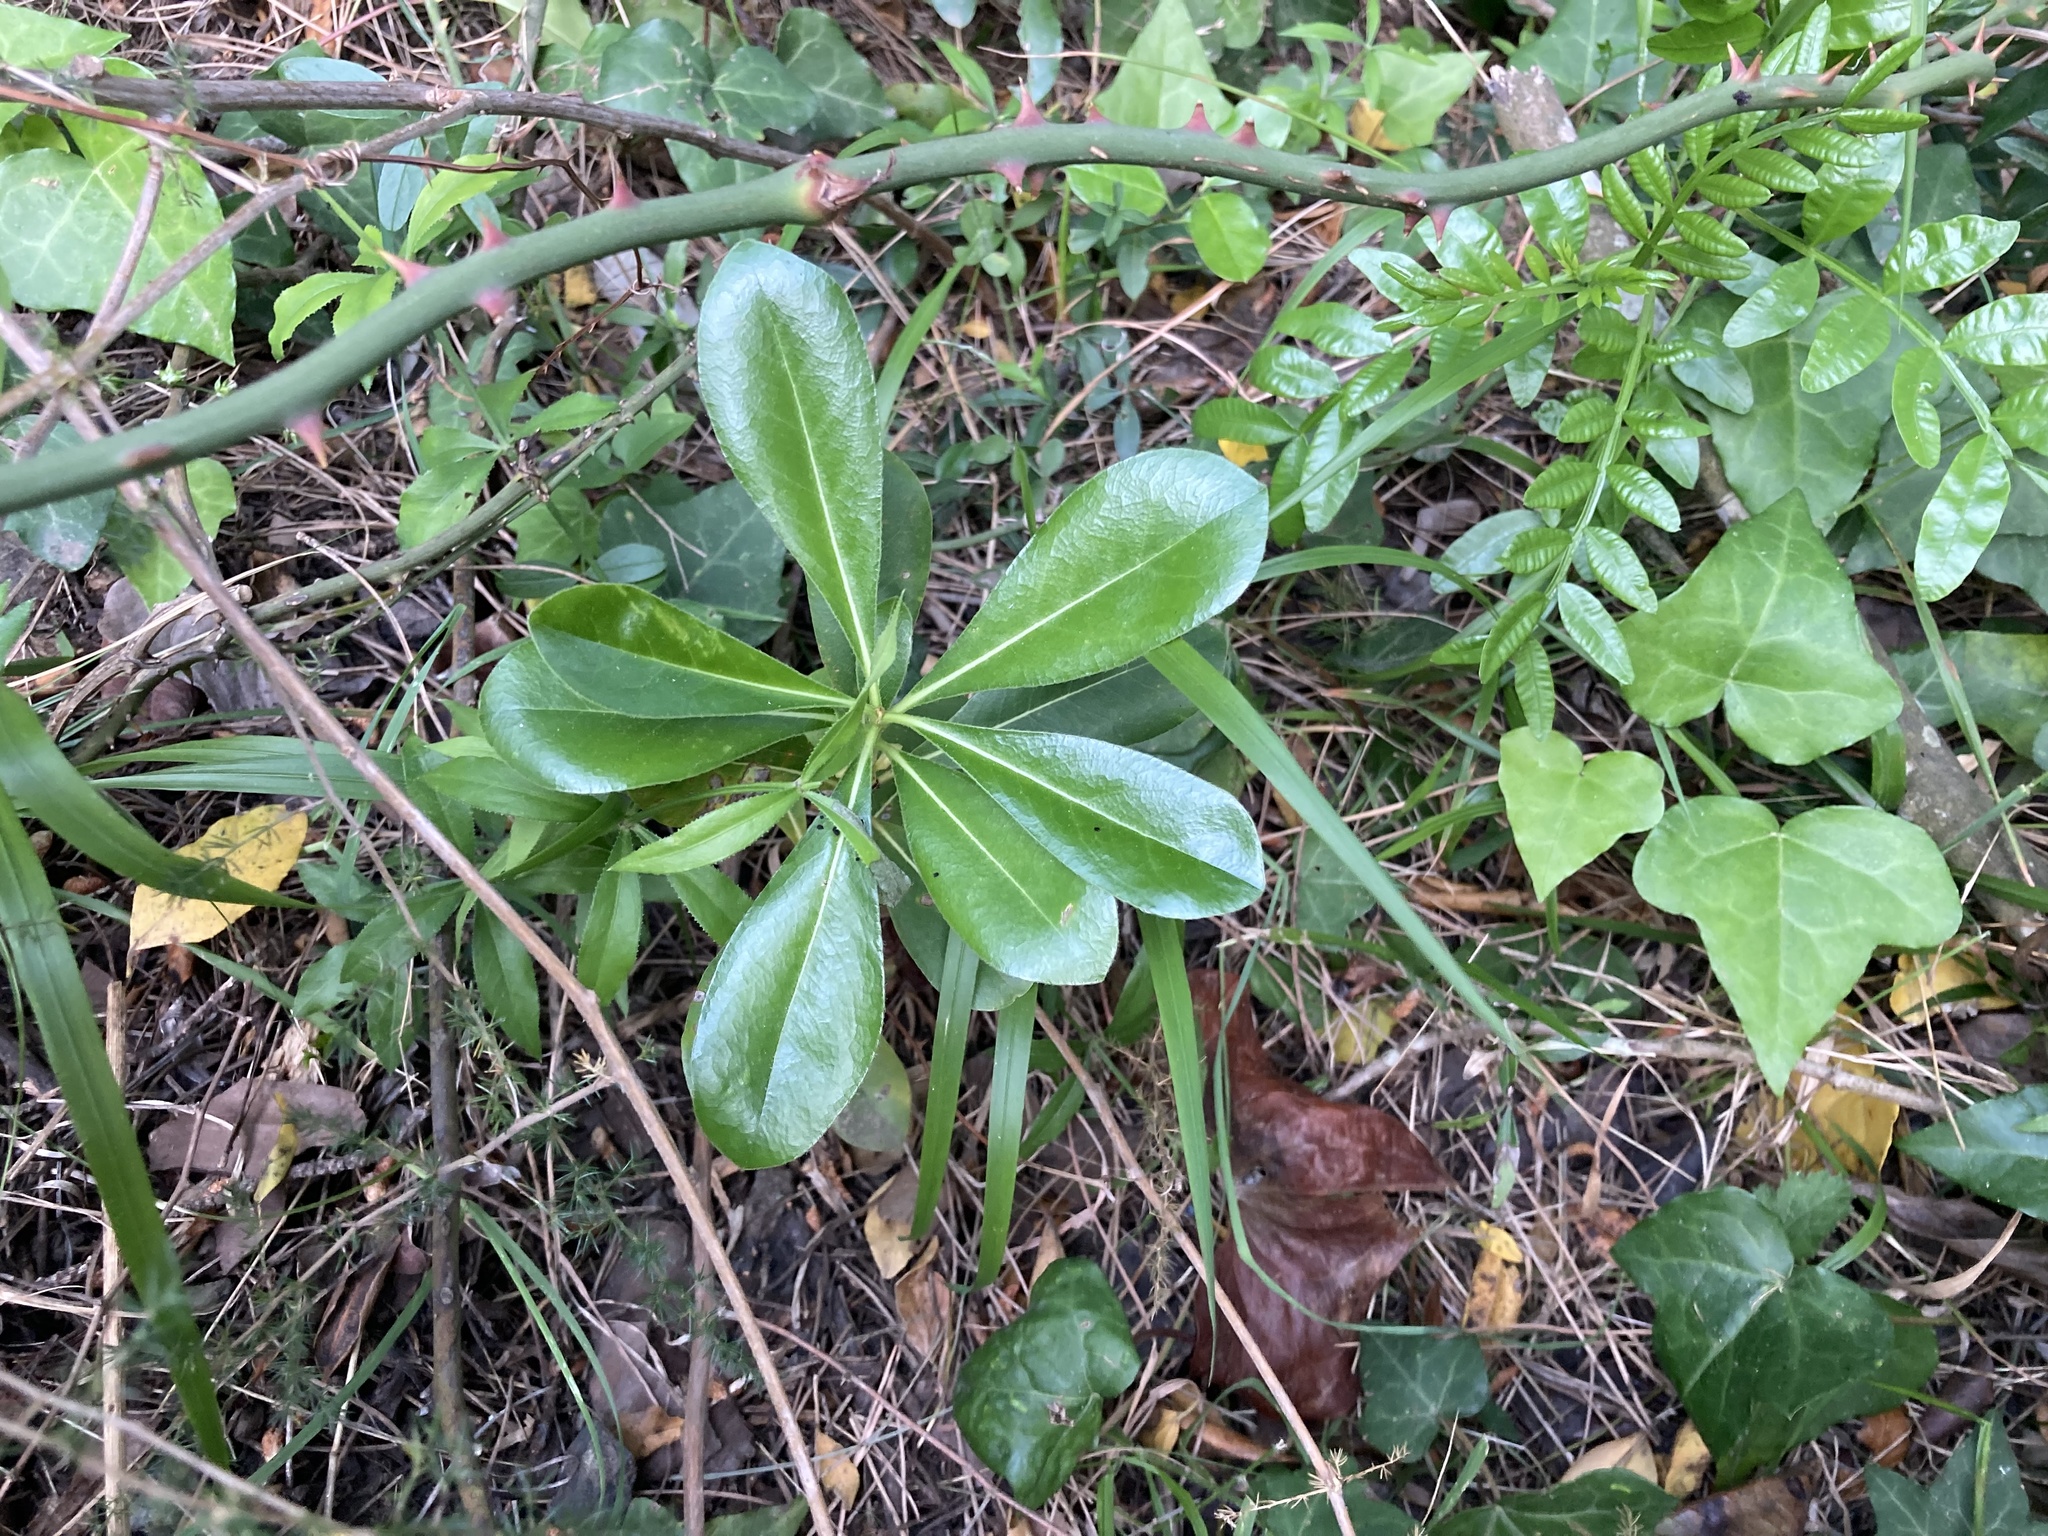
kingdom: Plantae
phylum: Tracheophyta
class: Magnoliopsida
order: Apiales
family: Pittosporaceae
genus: Pittosporum
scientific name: Pittosporum tobira
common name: Japanese cheesewood
